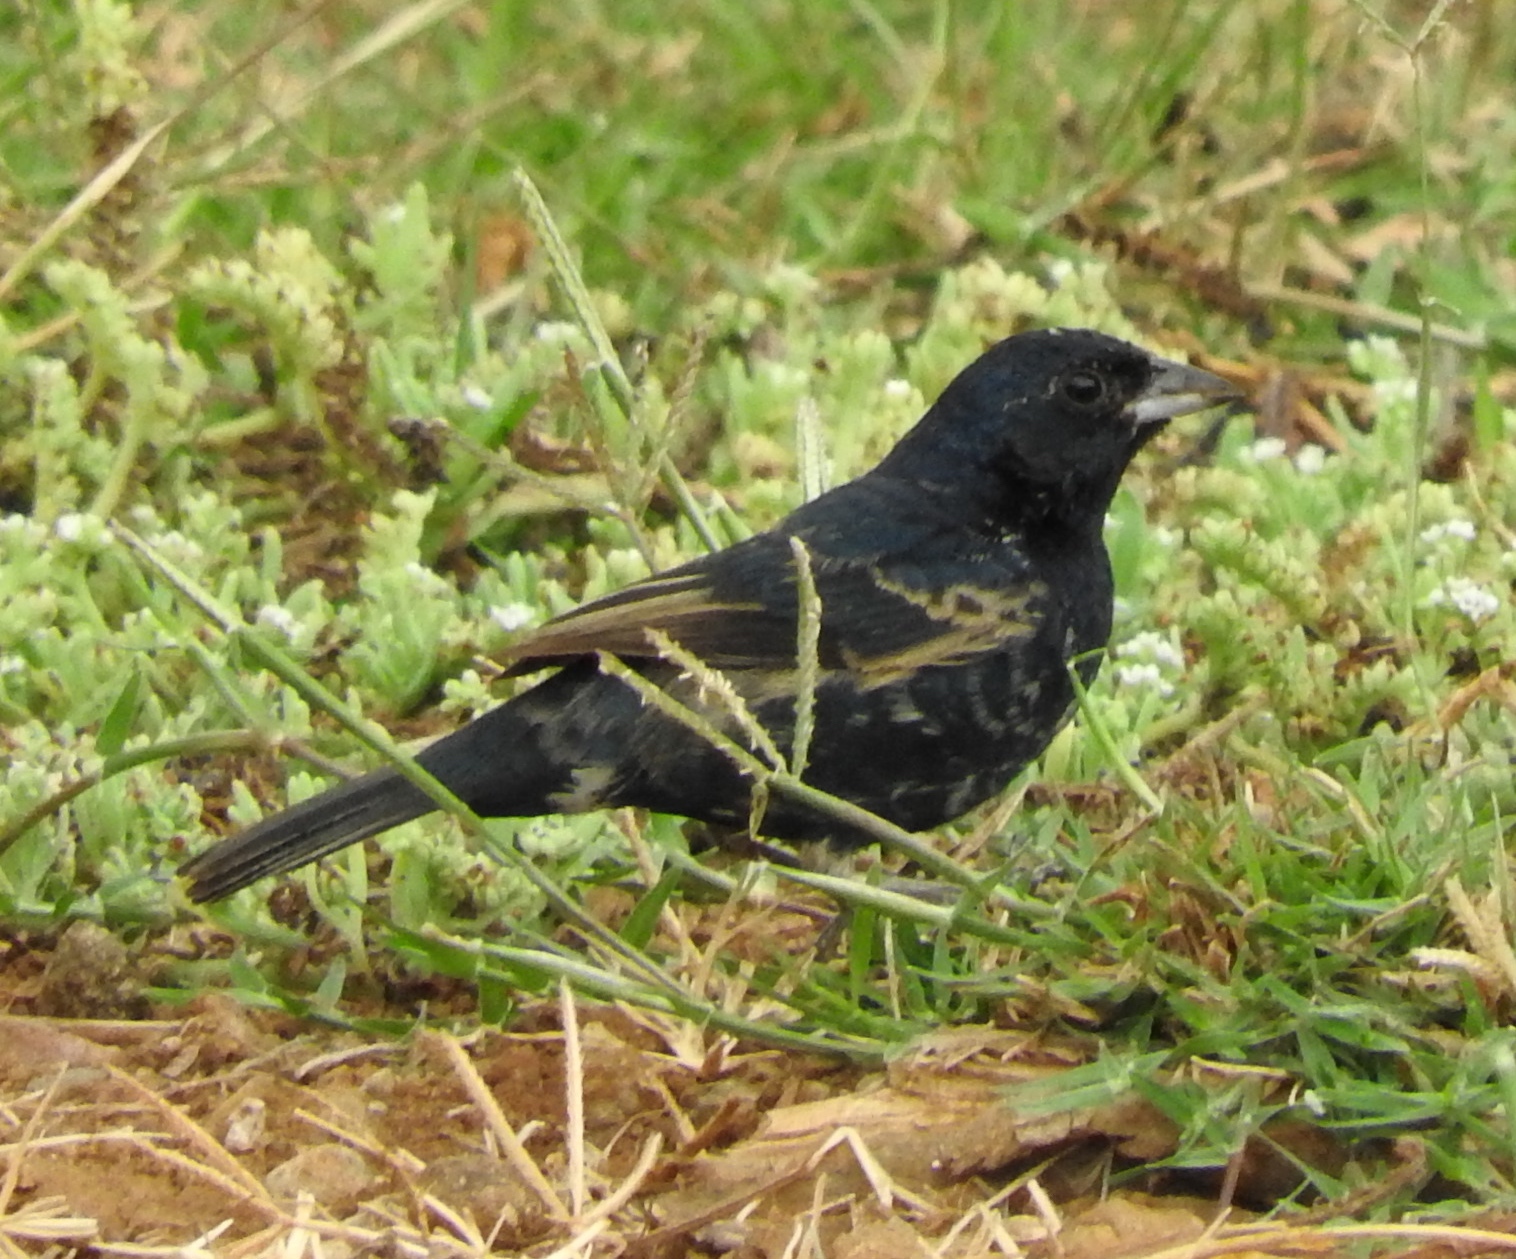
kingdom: Animalia
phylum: Chordata
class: Aves
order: Passeriformes
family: Thraupidae
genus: Volatinia
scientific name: Volatinia jacarina
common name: Blue-black grassquit
